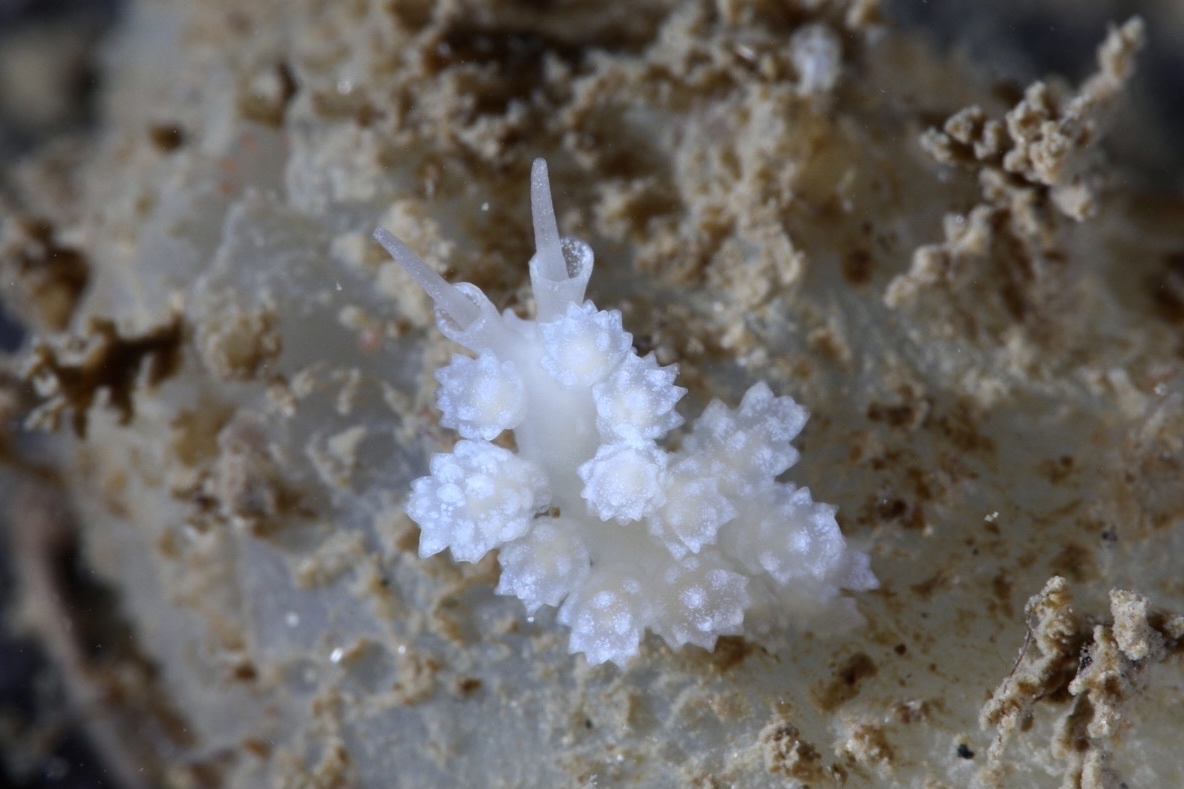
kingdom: Animalia
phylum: Mollusca
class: Gastropoda
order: Nudibranchia
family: Dotidae
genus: Doto
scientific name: Doto fragilis
